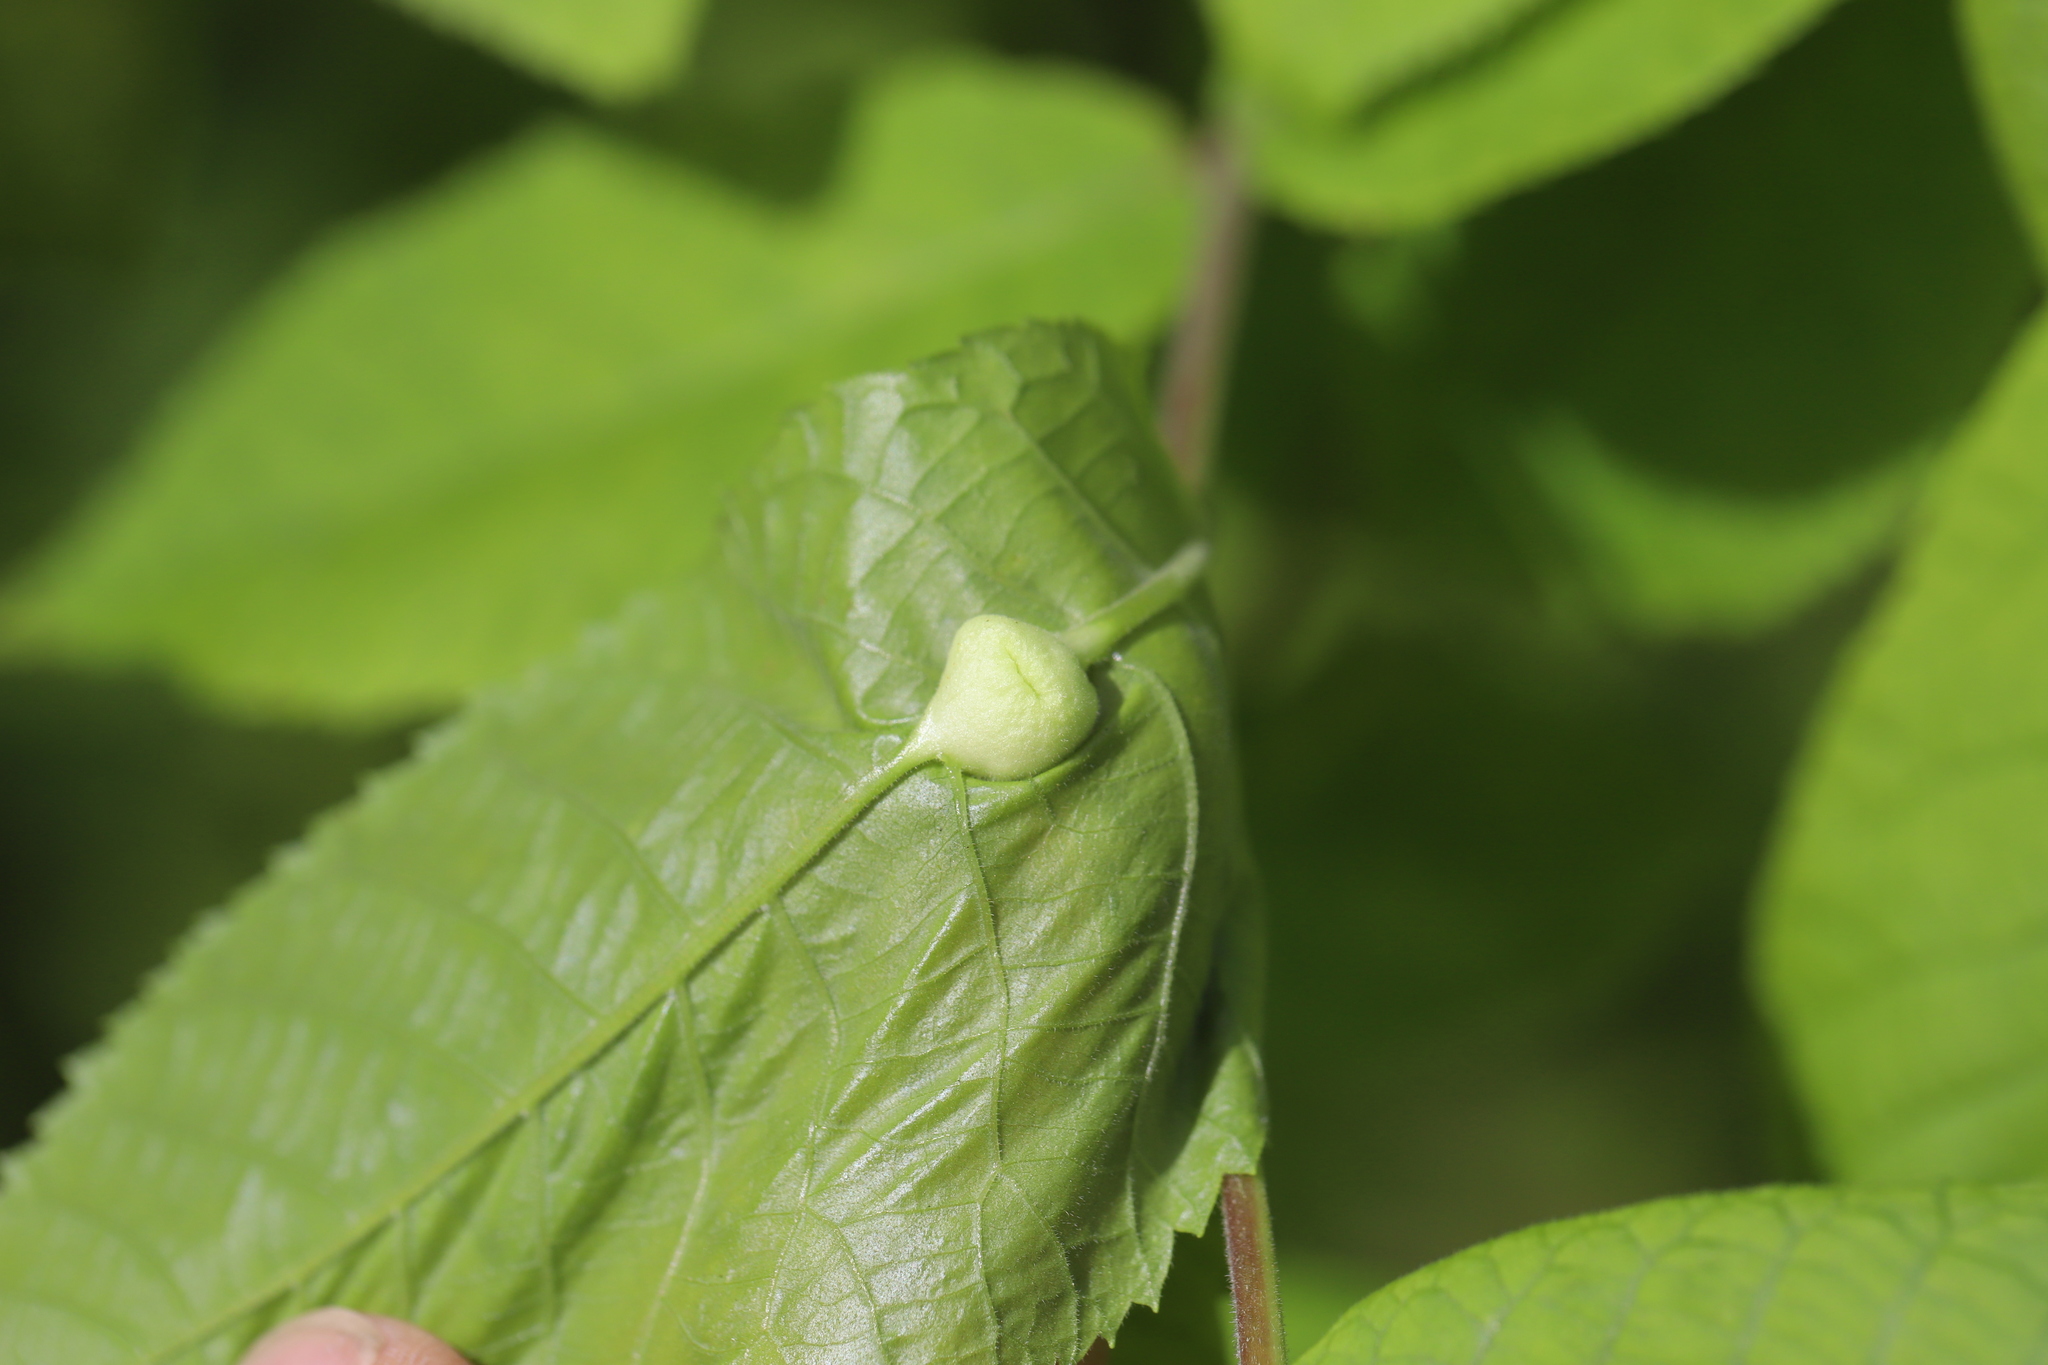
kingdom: Animalia
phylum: Arthropoda
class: Insecta
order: Hemiptera
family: Phylloxeridae
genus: Phylloxera
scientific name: Phylloxera
